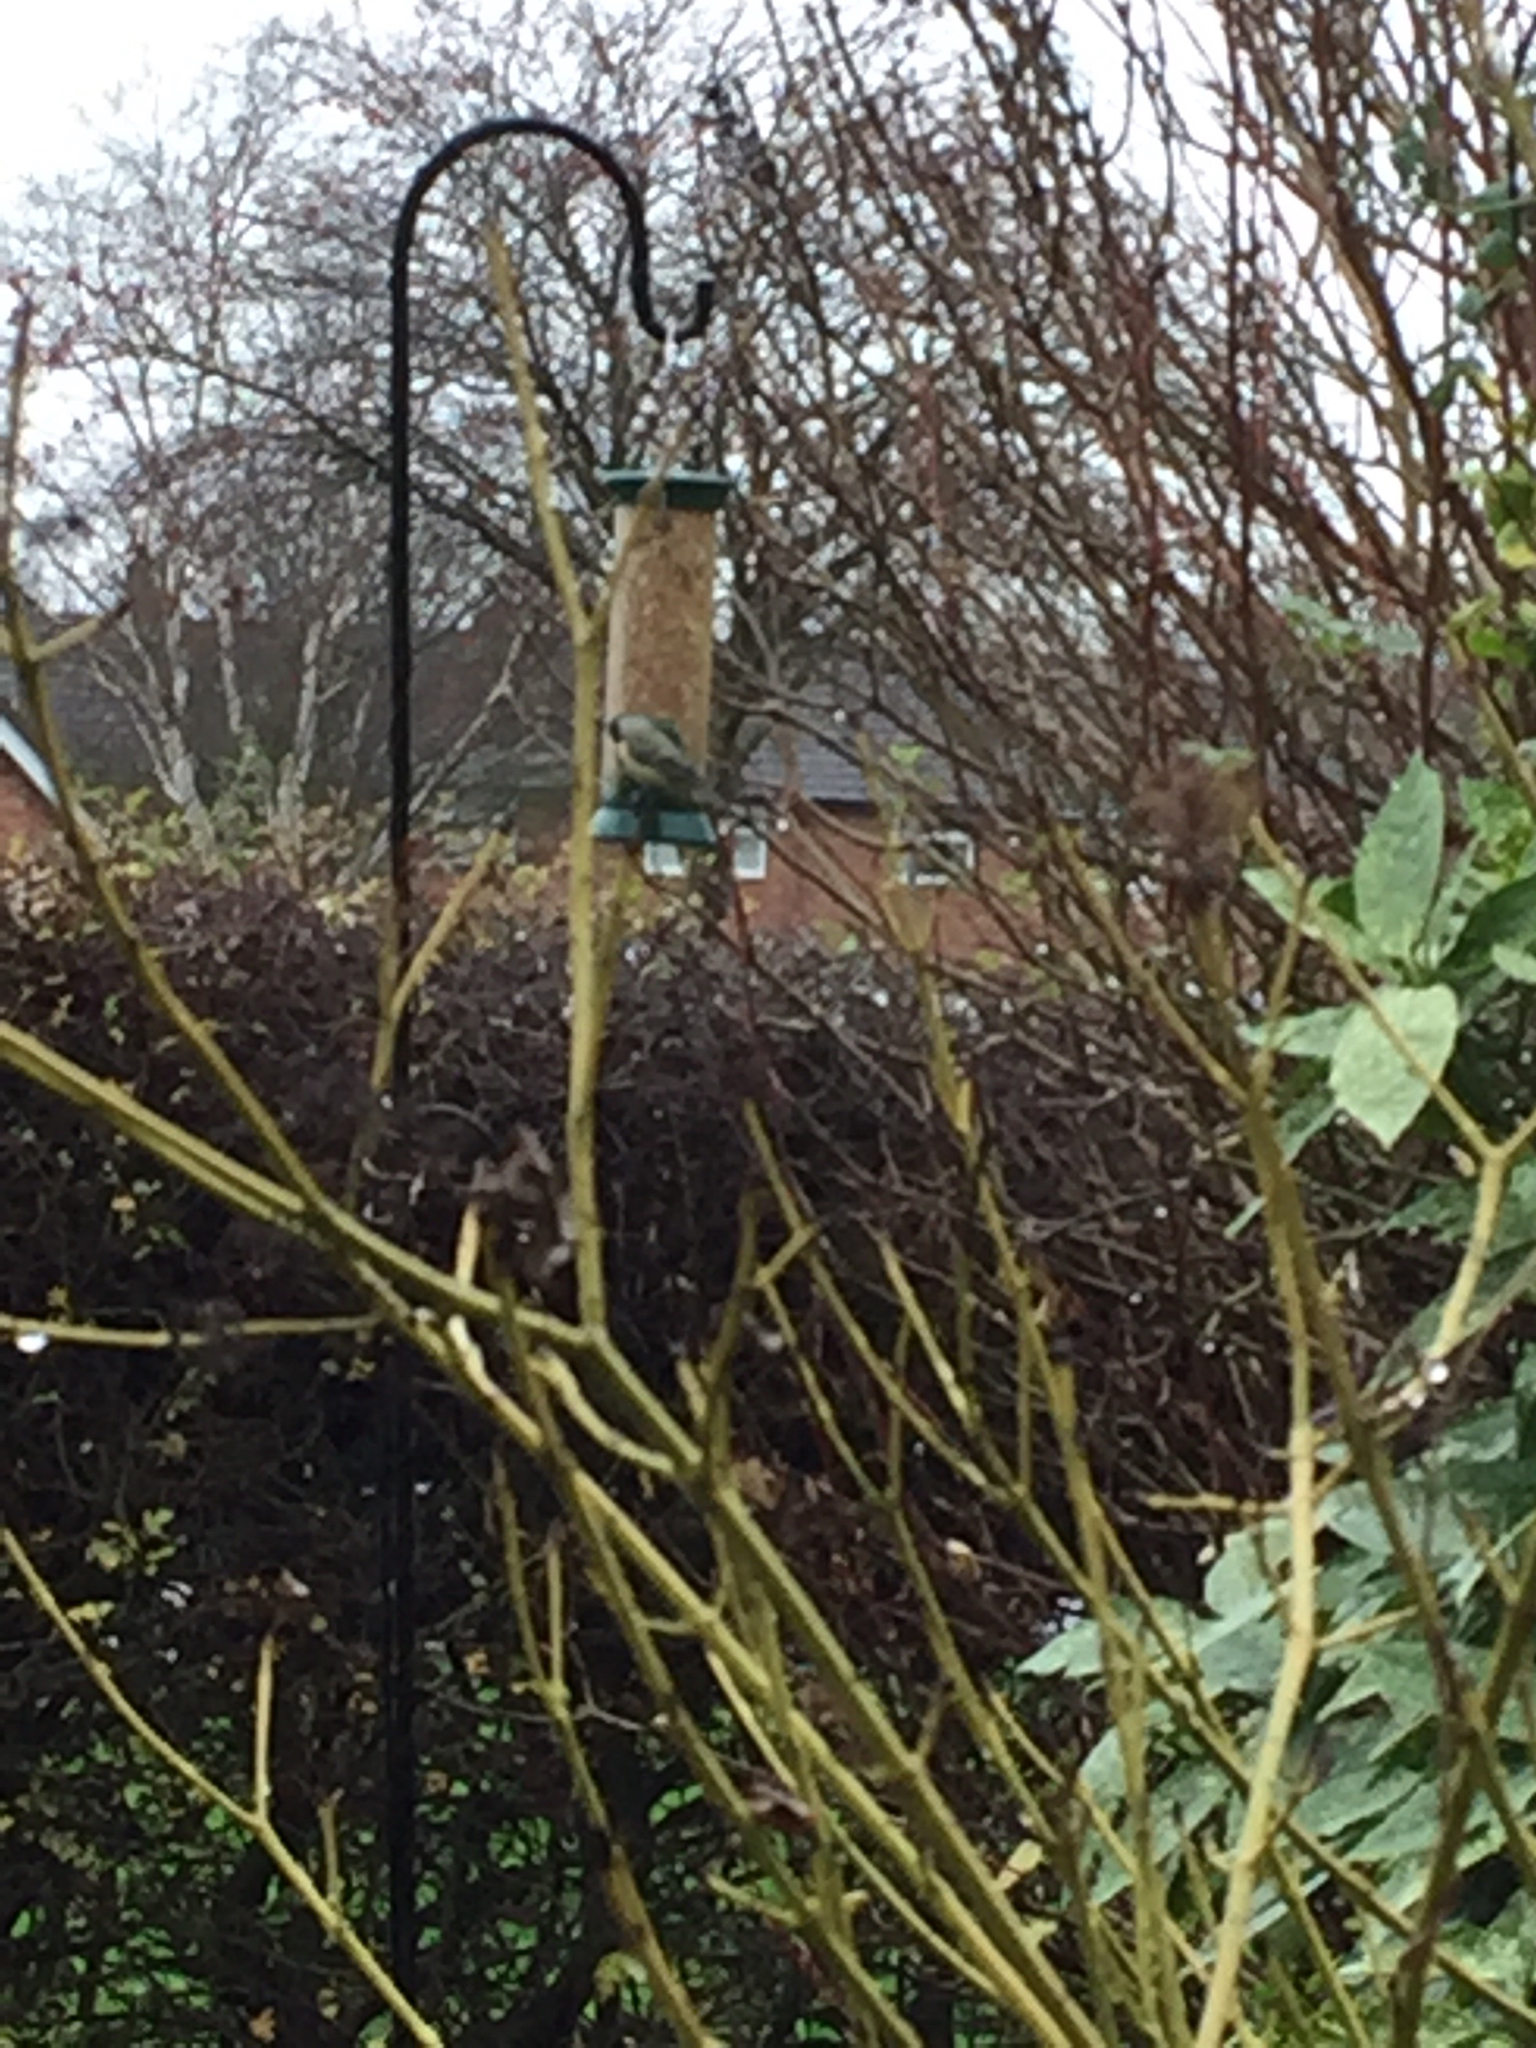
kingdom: Animalia
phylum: Chordata
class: Aves
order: Passeriformes
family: Paridae
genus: Cyanistes
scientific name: Cyanistes caeruleus
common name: Eurasian blue tit
